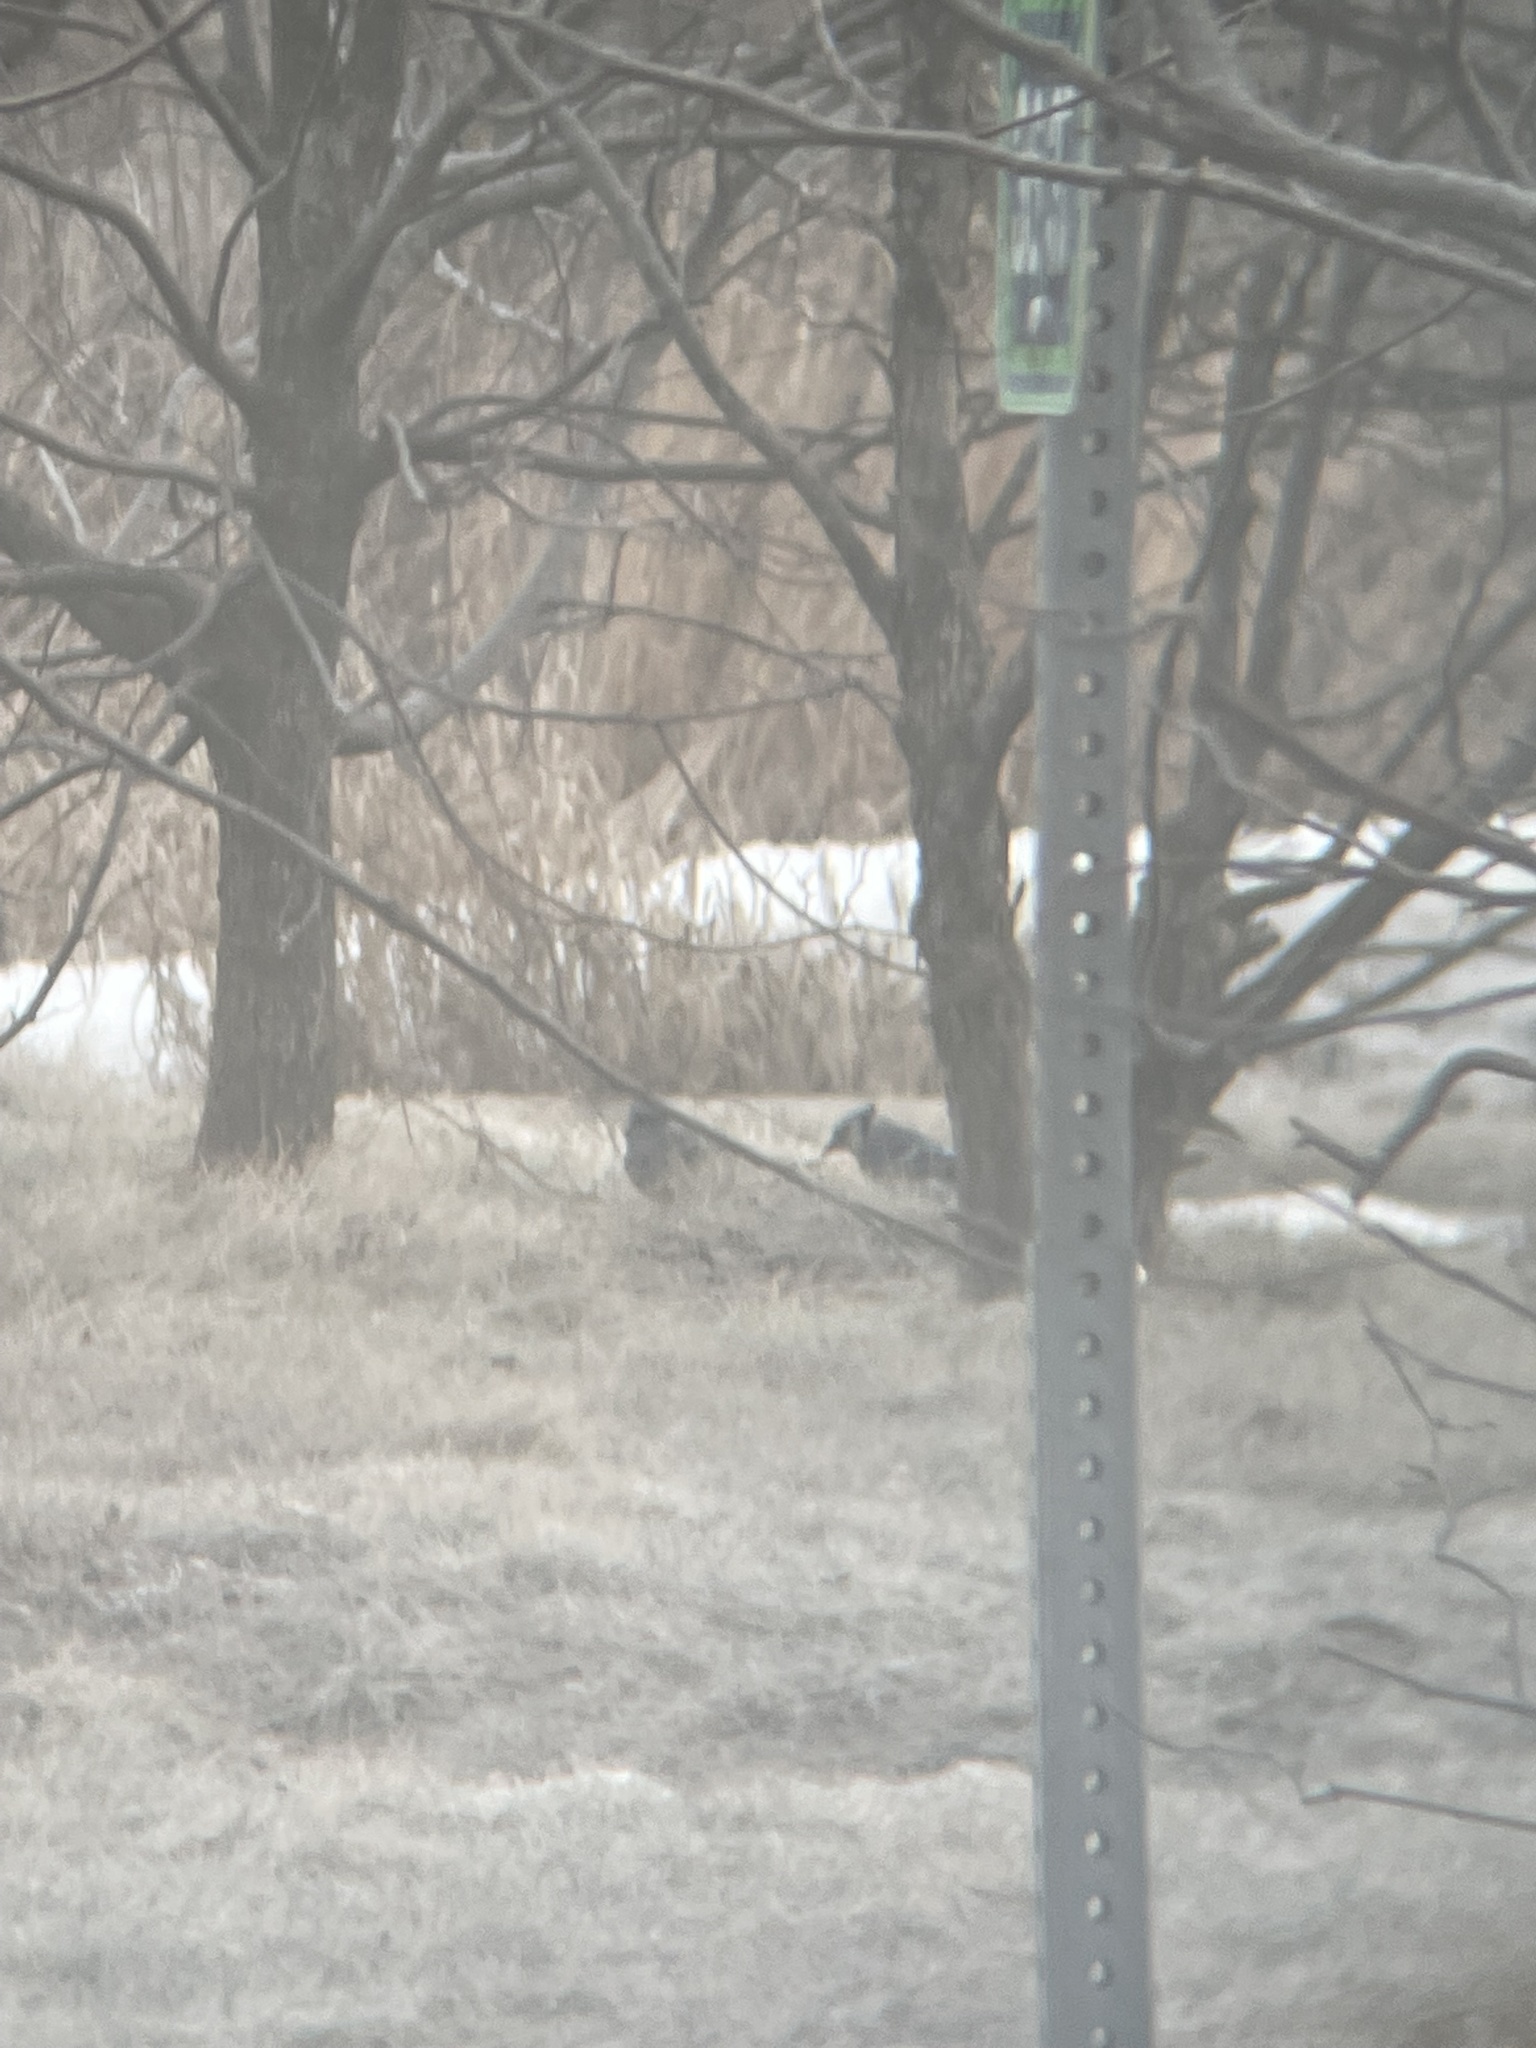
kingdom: Animalia
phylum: Chordata
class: Aves
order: Passeriformes
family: Corvidae
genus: Cyanocitta
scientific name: Cyanocitta cristata
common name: Blue jay
